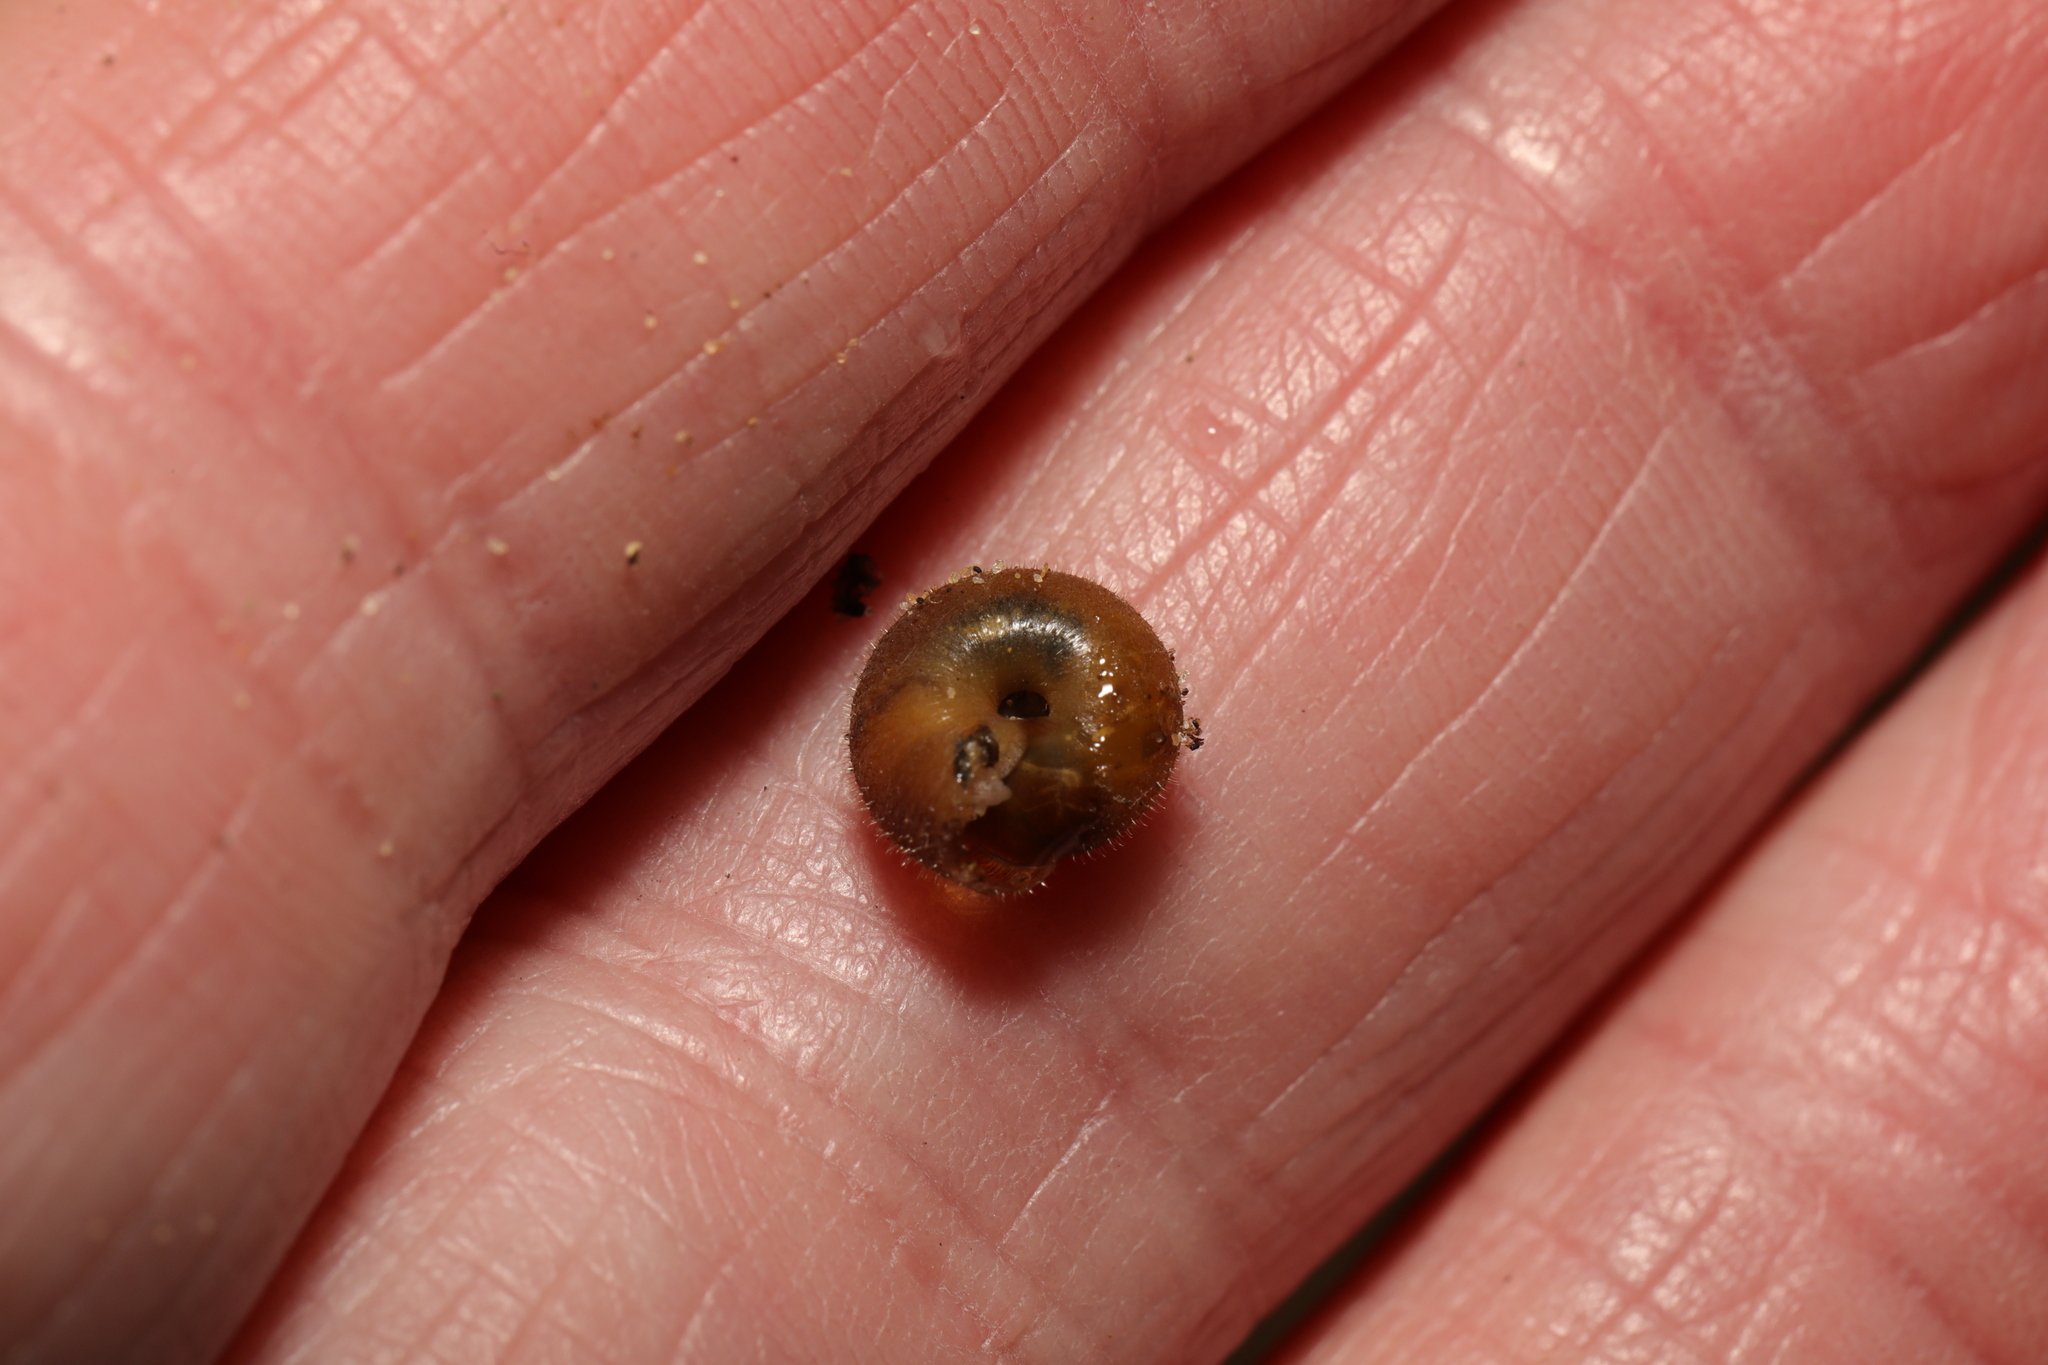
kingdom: Animalia
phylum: Mollusca
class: Gastropoda
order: Stylommatophora
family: Hygromiidae
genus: Trochulus
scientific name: Trochulus hispidus
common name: Hairy snail
